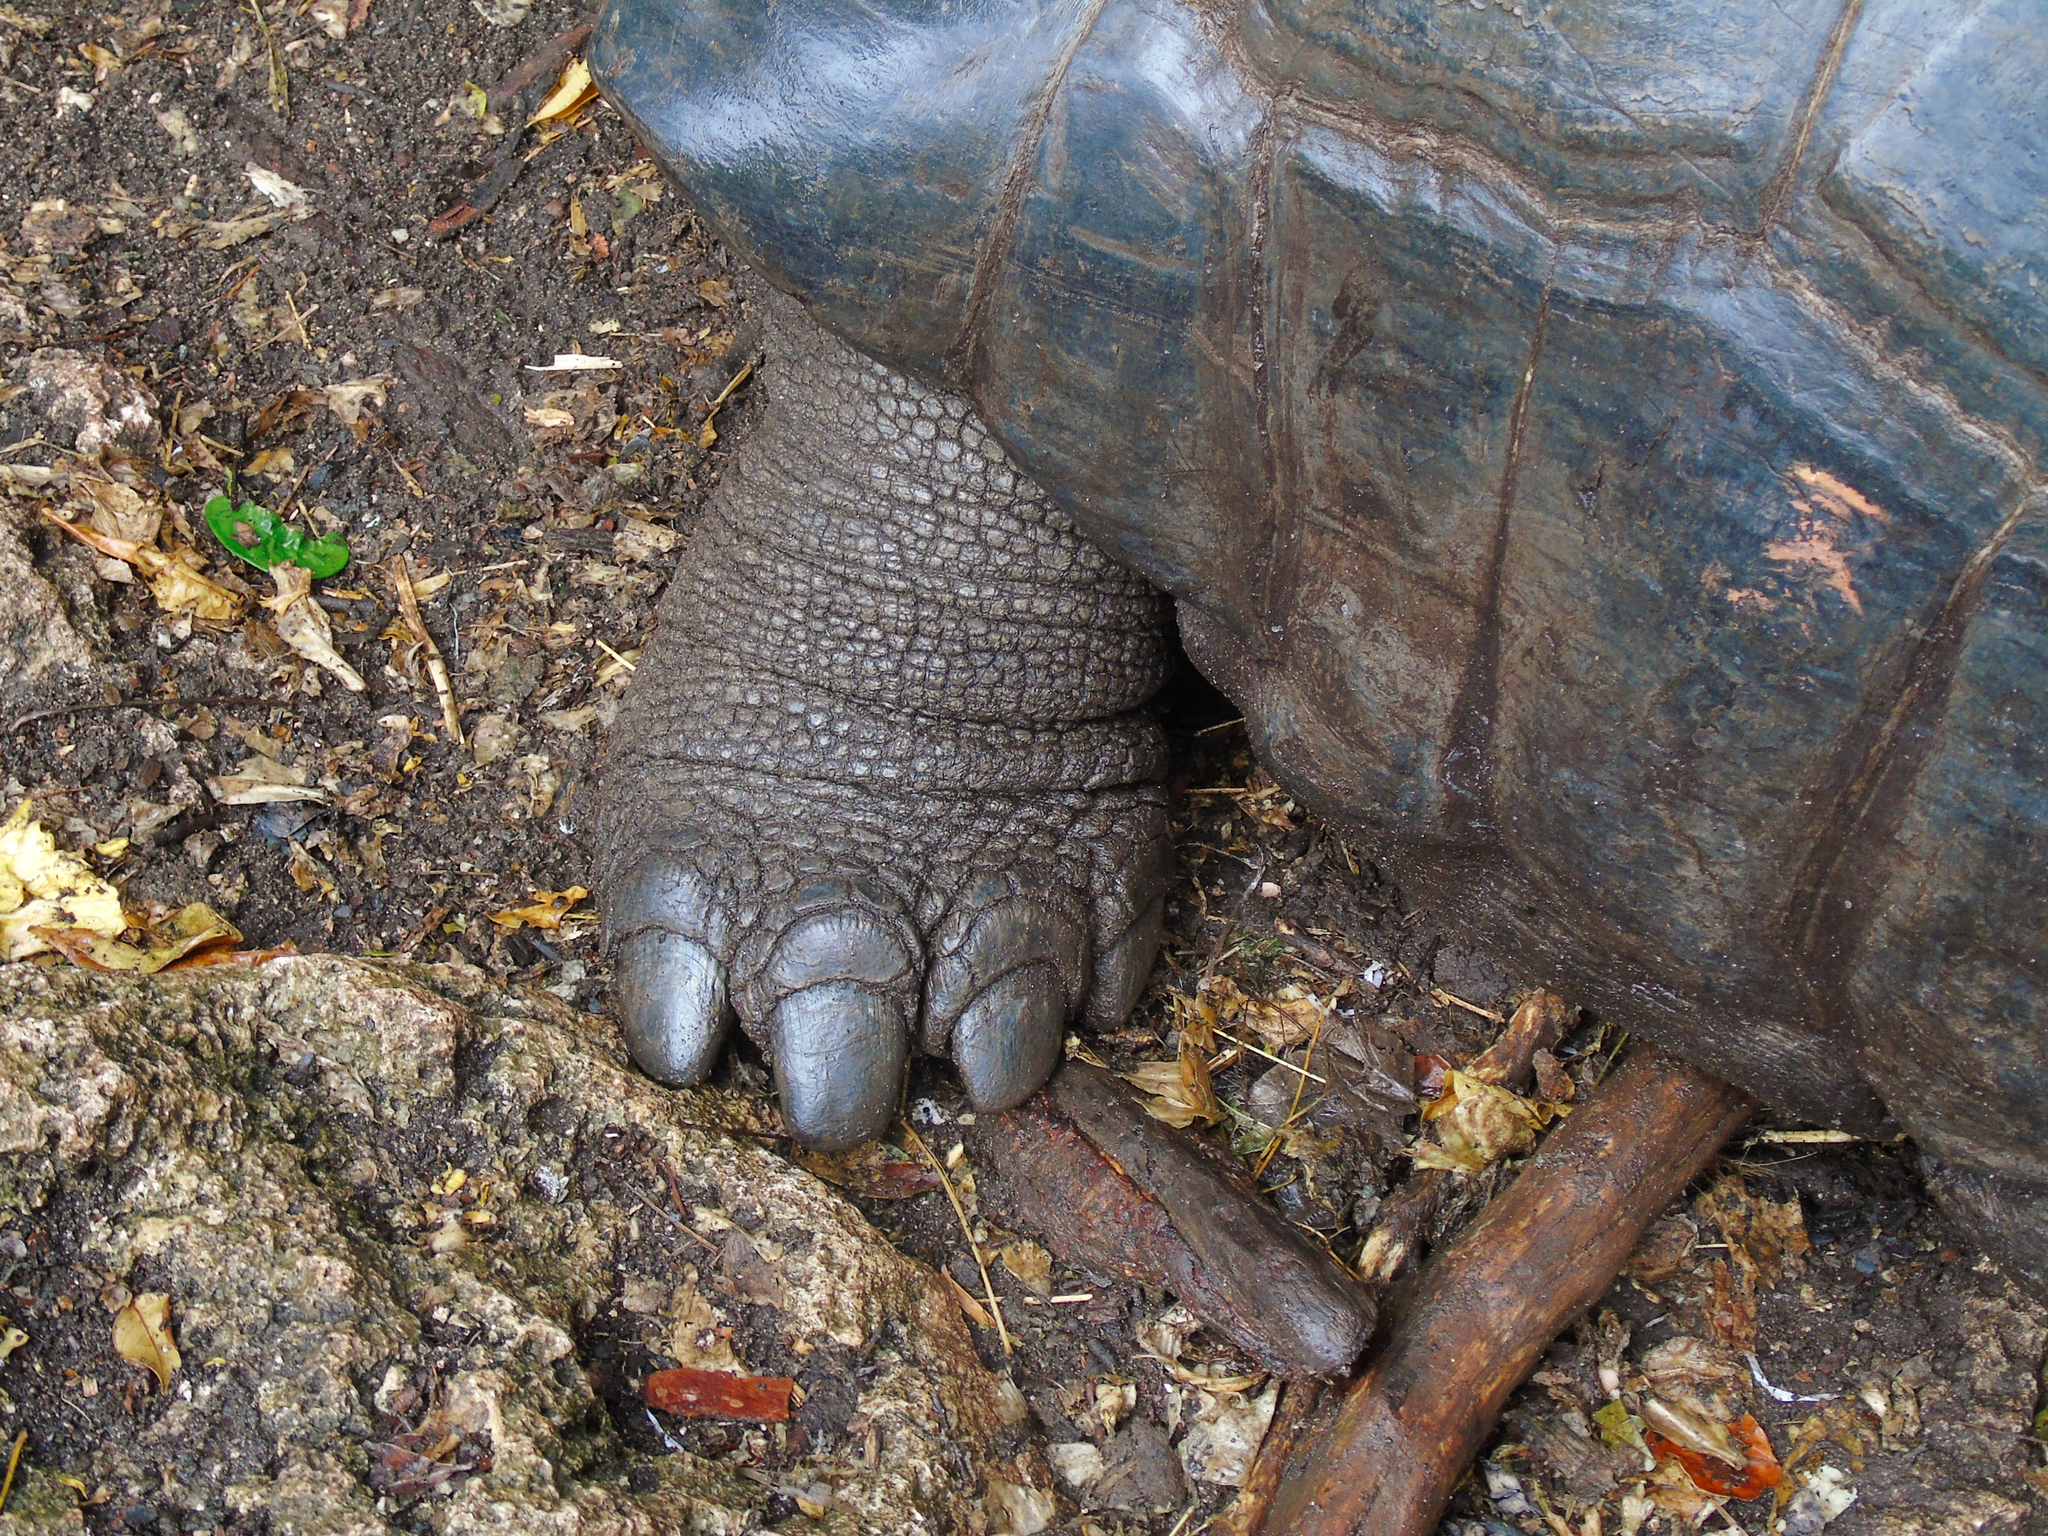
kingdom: Animalia
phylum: Chordata
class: Testudines
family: Testudinidae
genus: Aldabrachelys
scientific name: Aldabrachelys gigantea
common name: Aldabra giant tortoise
